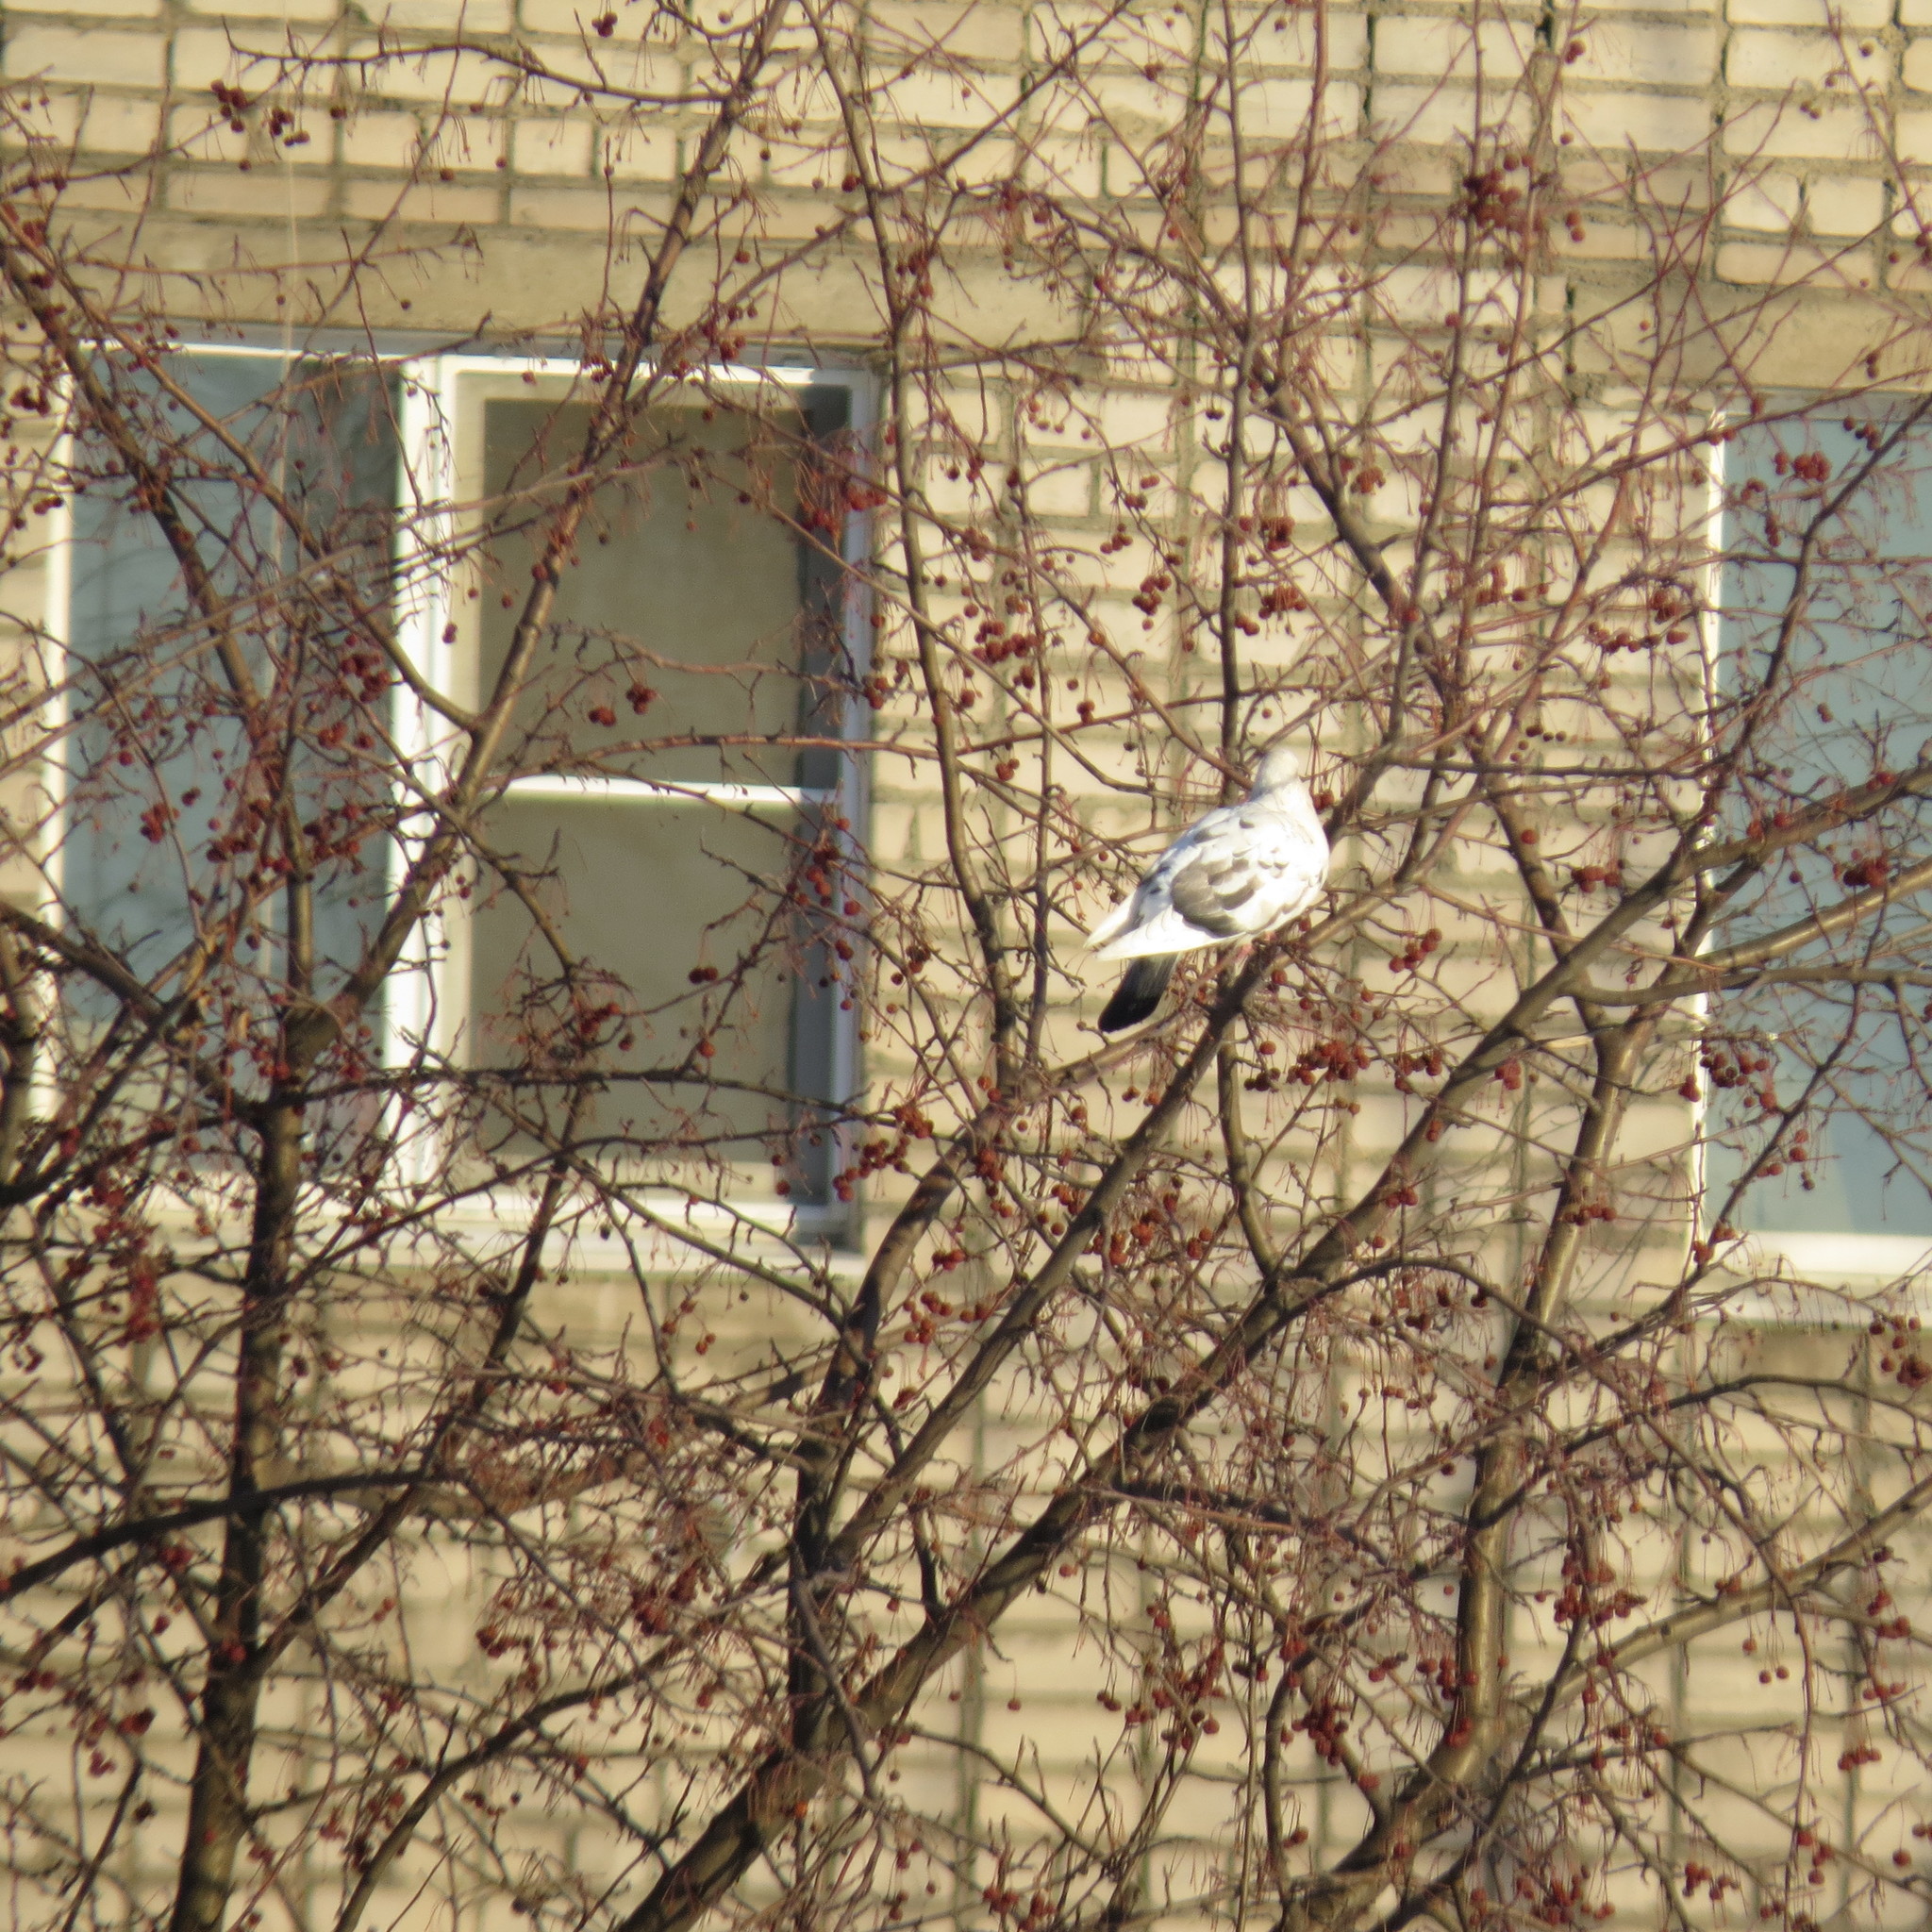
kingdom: Animalia
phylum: Chordata
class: Aves
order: Columbiformes
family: Columbidae
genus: Columba
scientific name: Columba livia
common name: Rock pigeon
